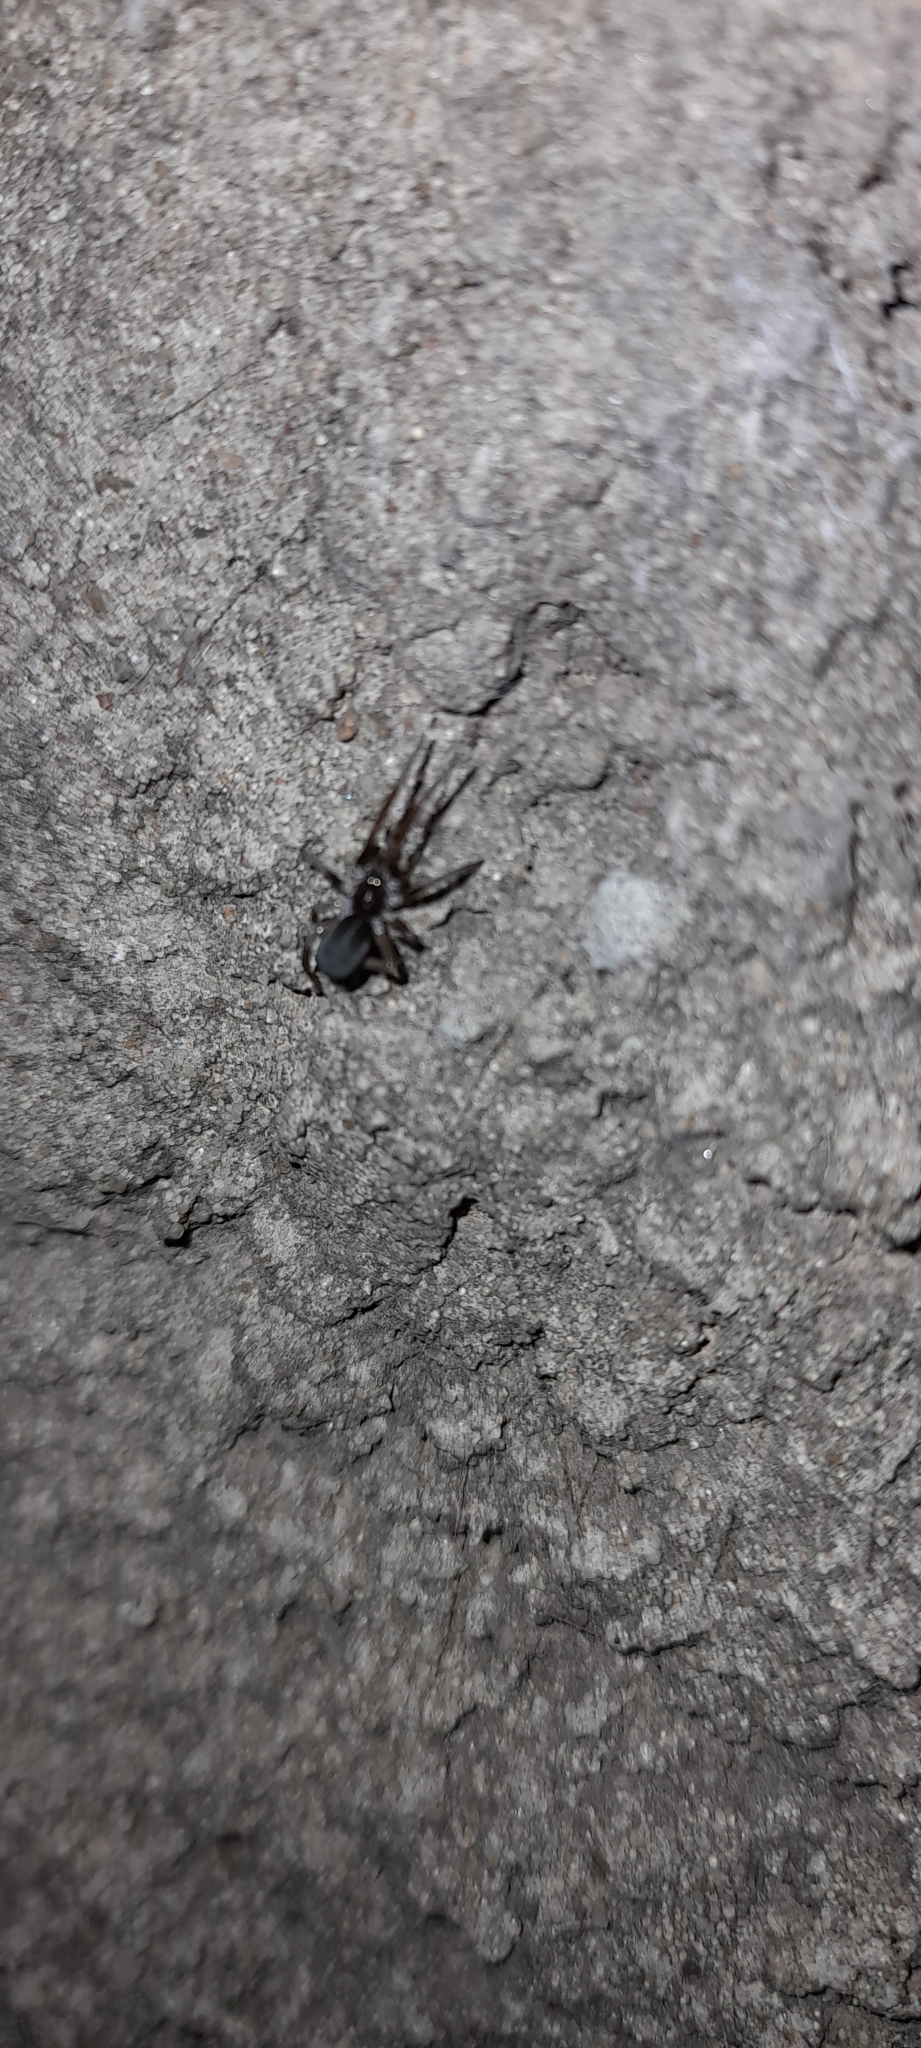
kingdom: Animalia
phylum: Arthropoda
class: Arachnida
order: Araneae
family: Filistatidae
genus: Kukulcania
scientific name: Kukulcania hibernalis
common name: Crevice weaver
